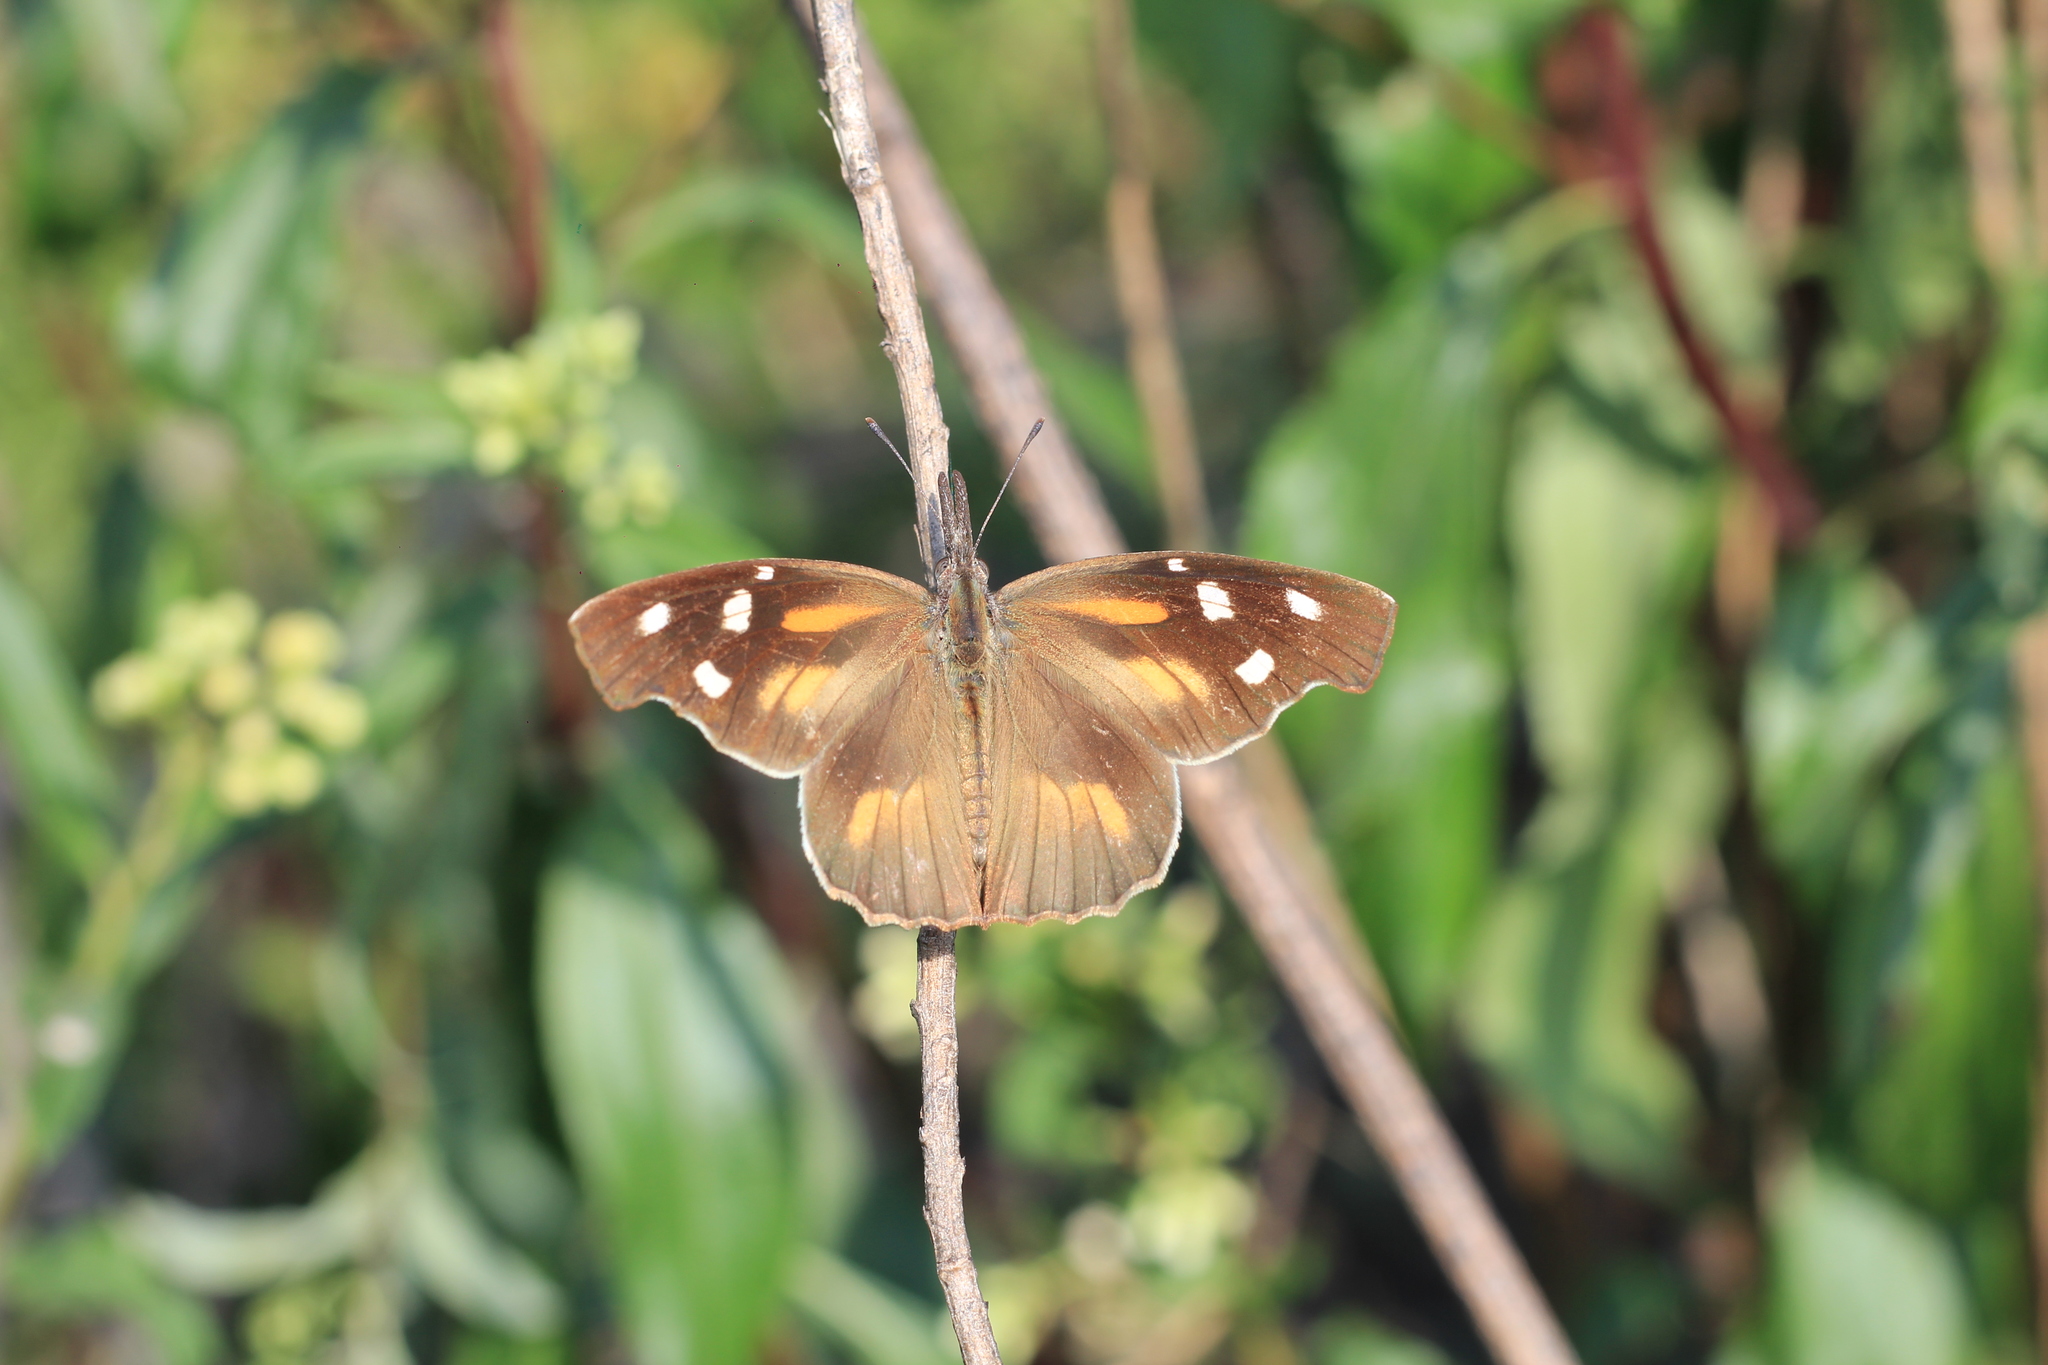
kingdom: Animalia
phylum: Arthropoda
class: Insecta
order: Lepidoptera
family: Nymphalidae
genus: Libytheana
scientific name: Libytheana carinenta
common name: American snout
